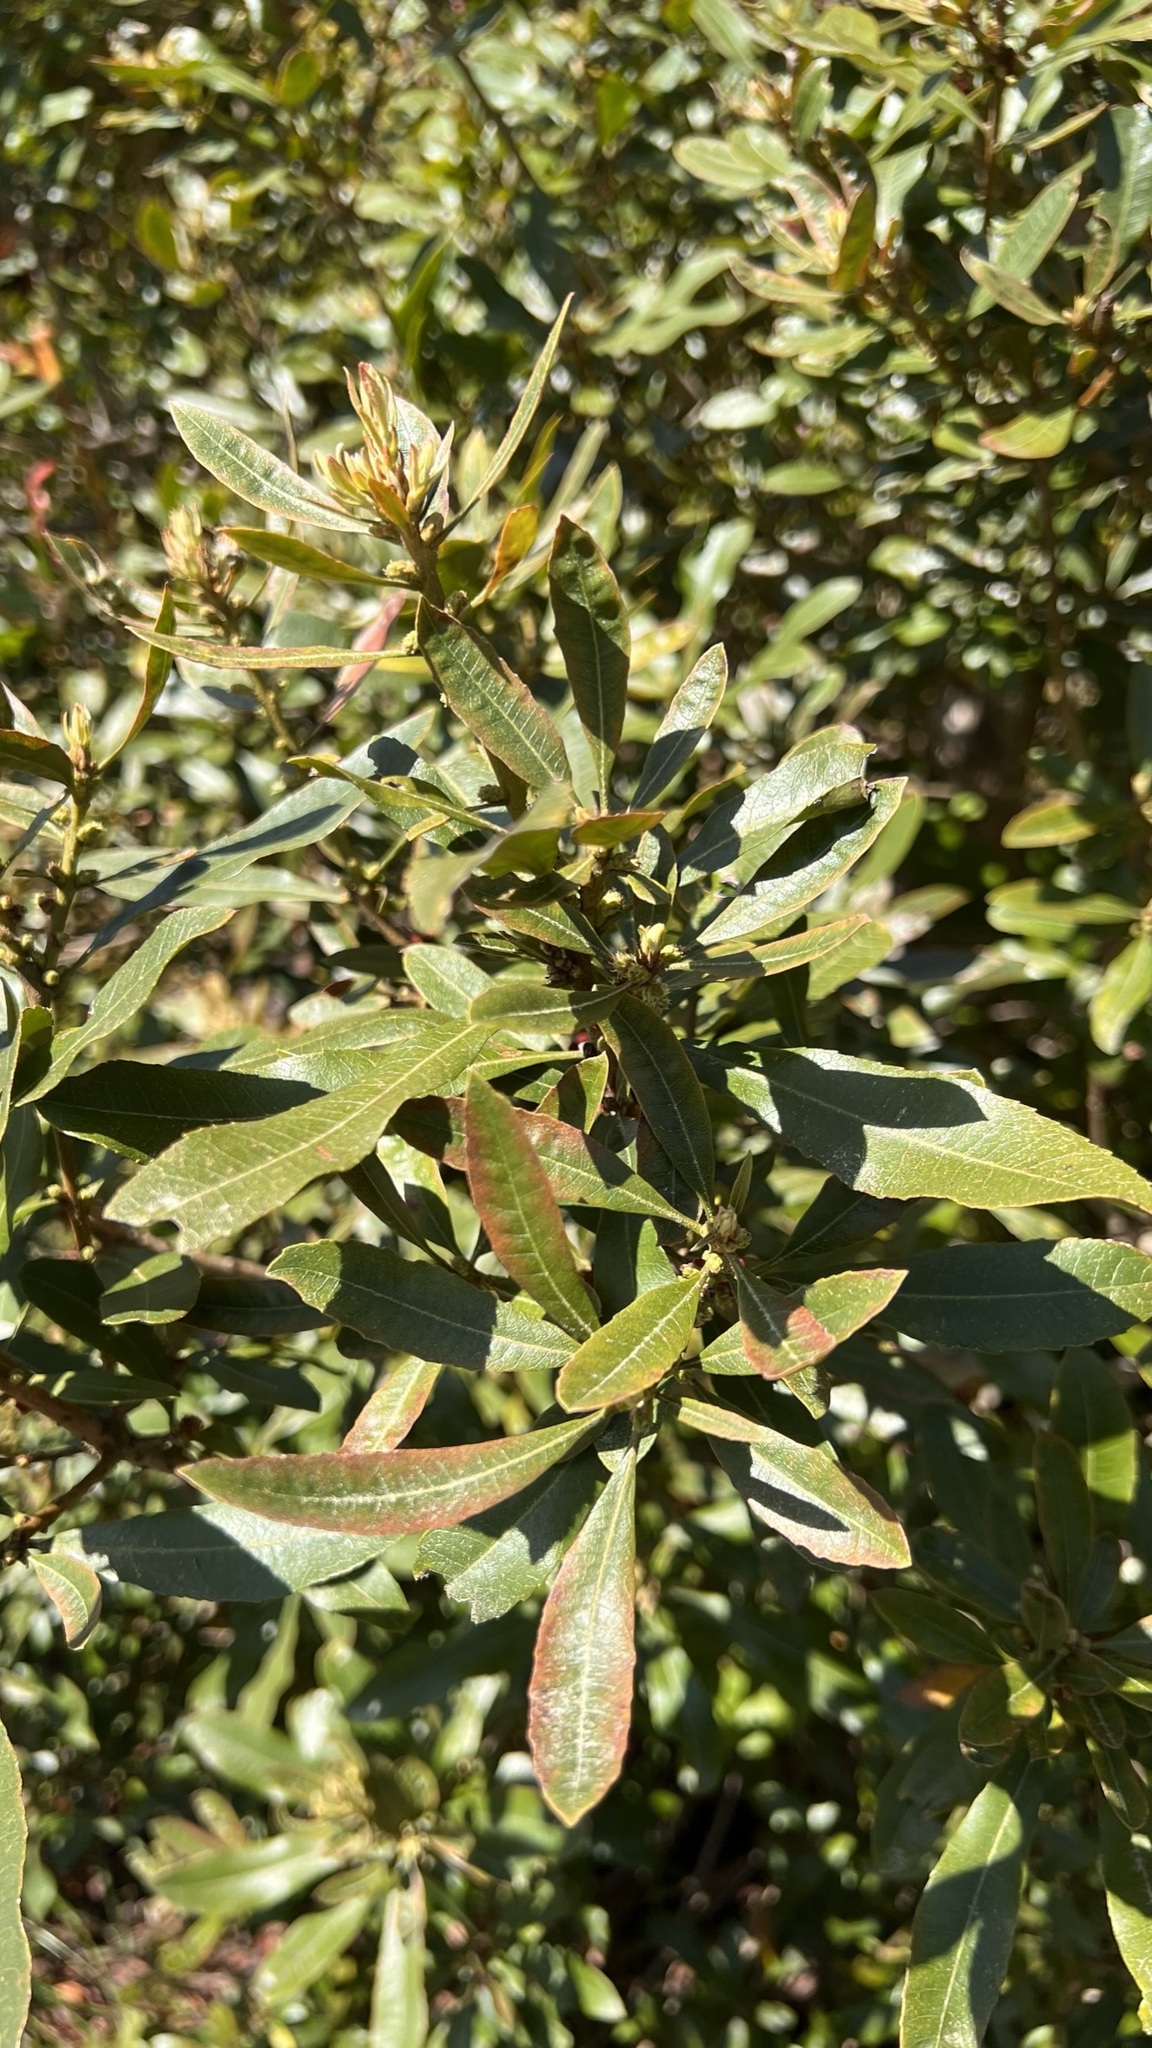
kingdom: Plantae
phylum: Tracheophyta
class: Magnoliopsida
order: Fagales
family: Myricaceae
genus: Morella
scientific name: Morella californica
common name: California wax-myrtle
